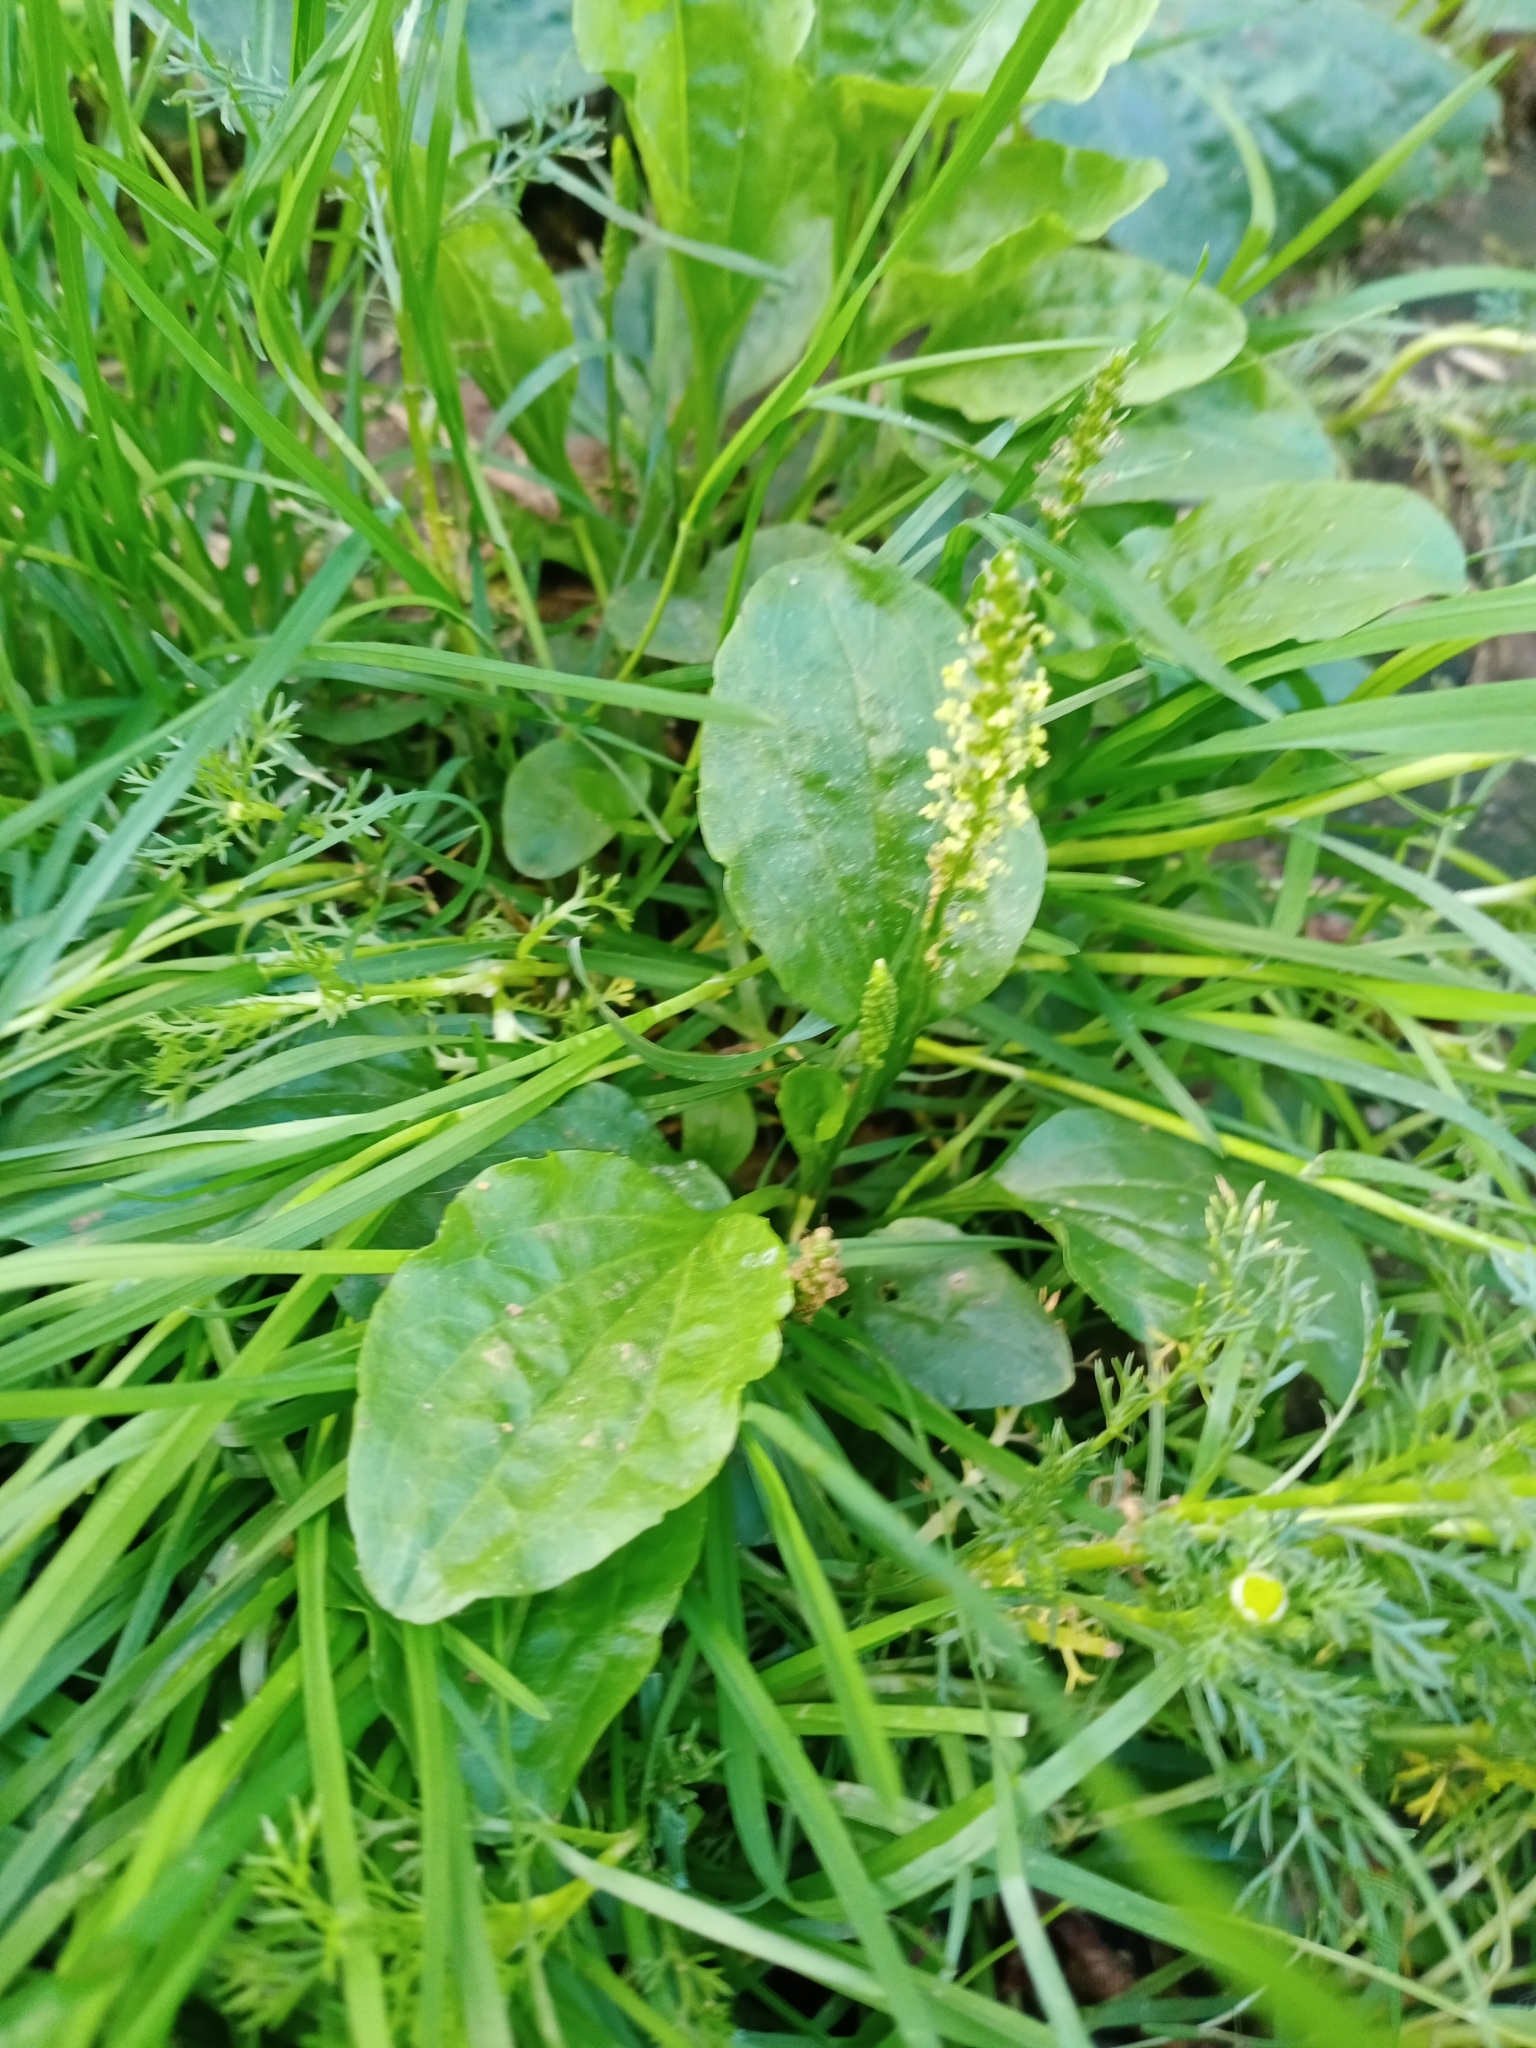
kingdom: Plantae
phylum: Tracheophyta
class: Magnoliopsida
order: Lamiales
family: Plantaginaceae
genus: Plantago
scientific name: Plantago major
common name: Common plantain
